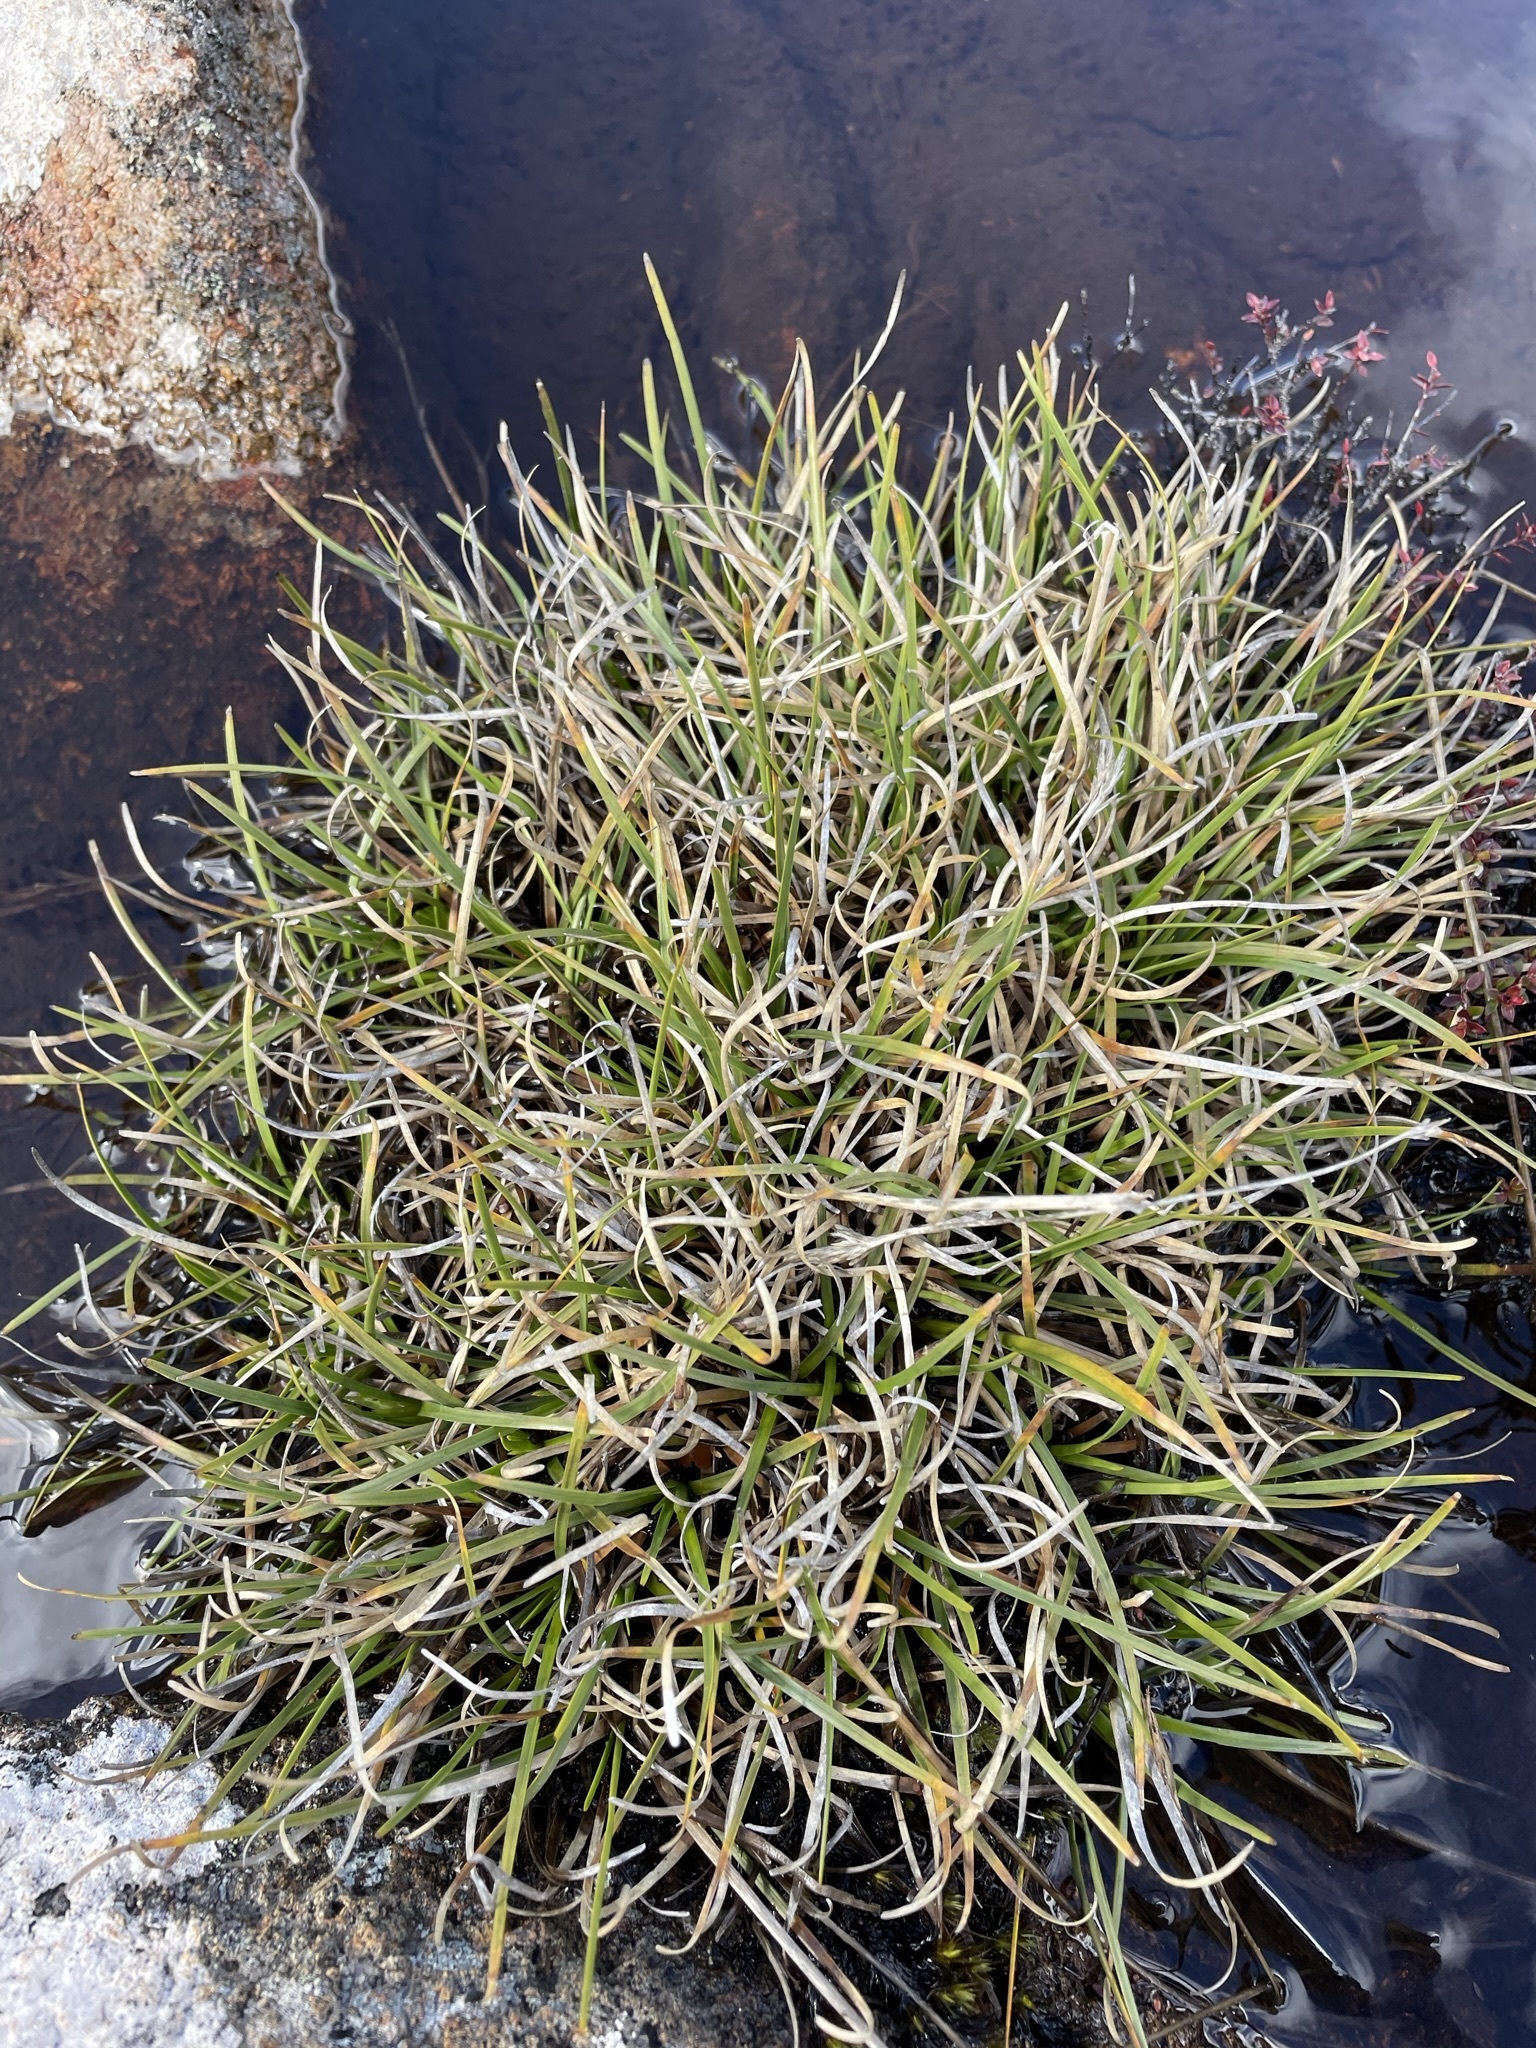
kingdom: Plantae
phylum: Tracheophyta
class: Liliopsida
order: Poales
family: Cyperaceae
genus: Carpha
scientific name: Carpha alpina
